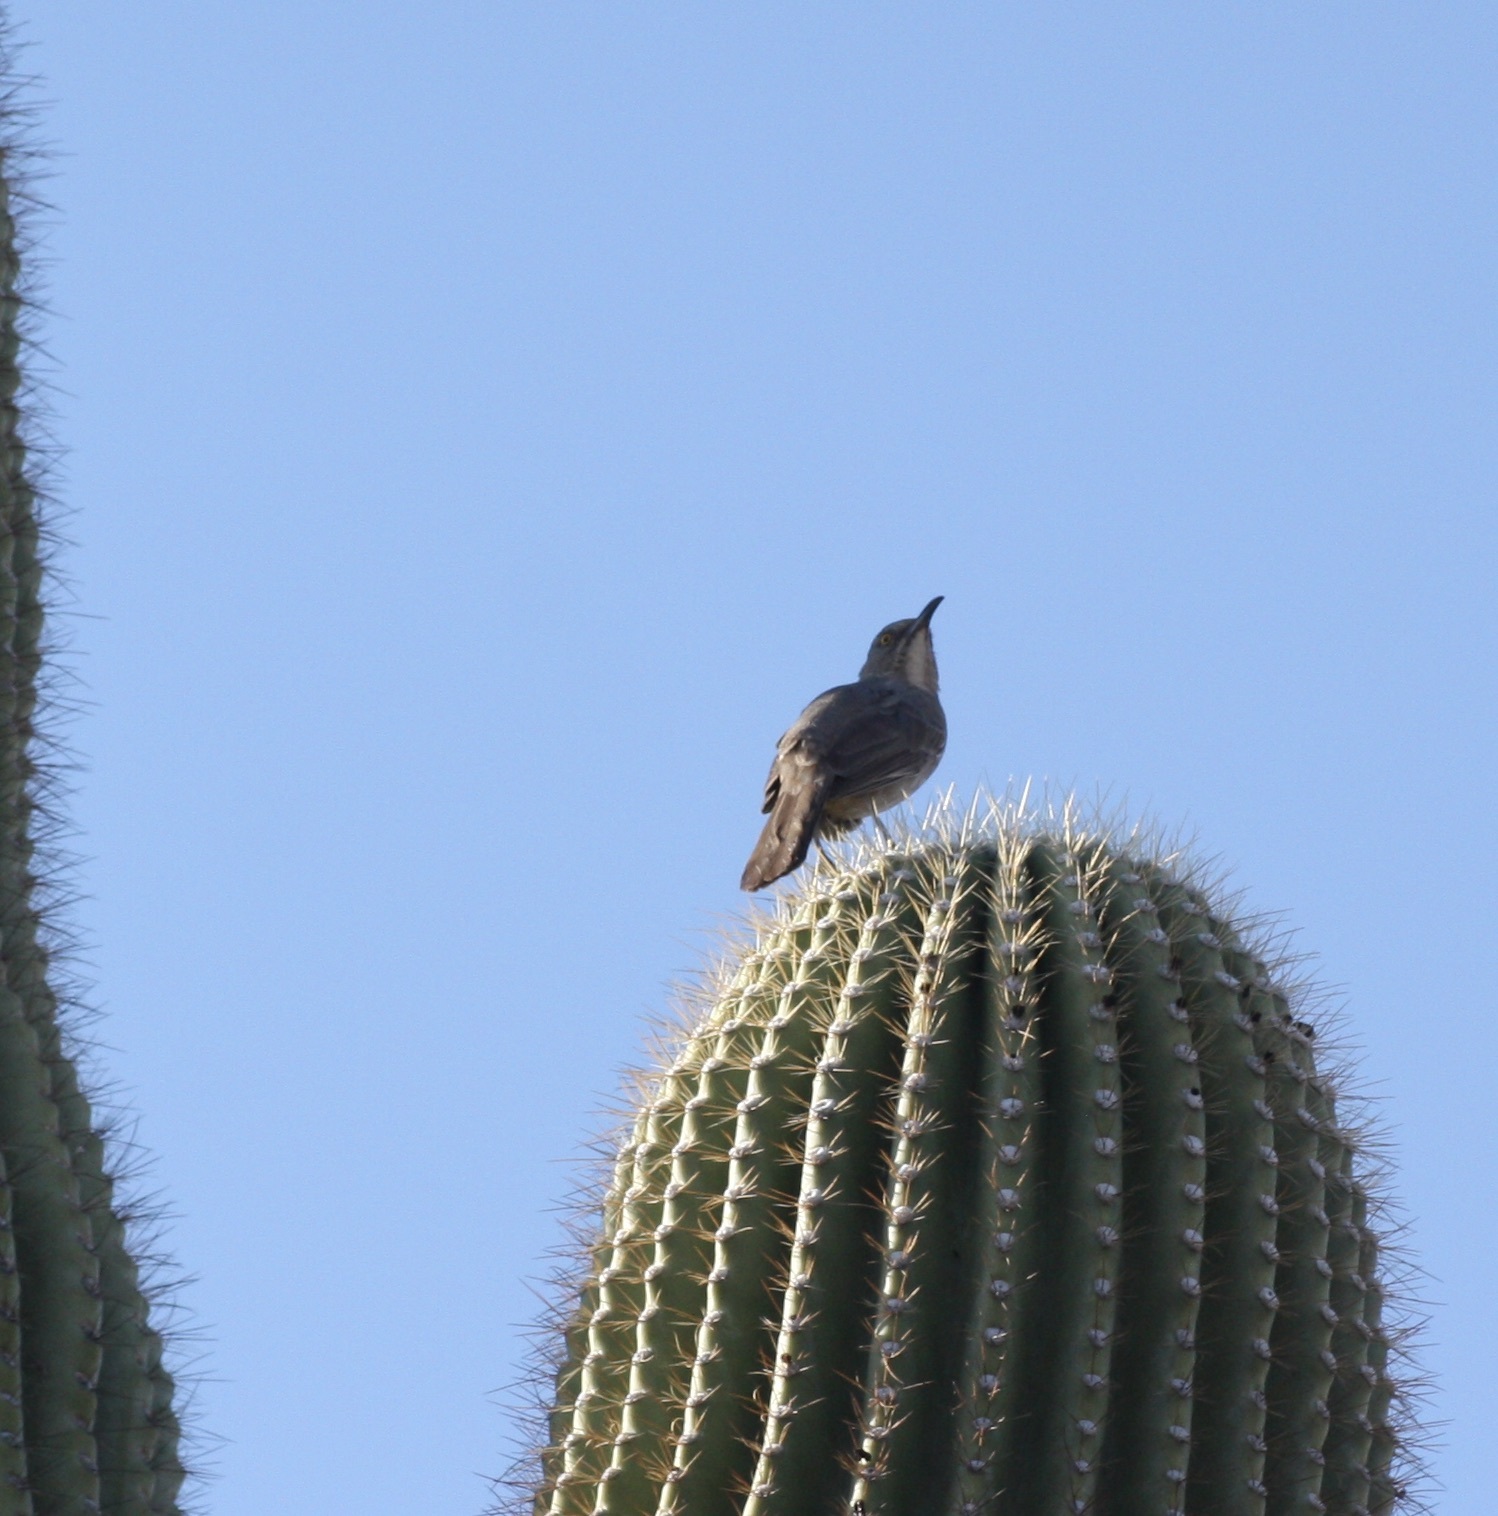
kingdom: Animalia
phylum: Chordata
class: Aves
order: Passeriformes
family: Mimidae
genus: Toxostoma
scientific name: Toxostoma curvirostre
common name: Curve-billed thrasher
